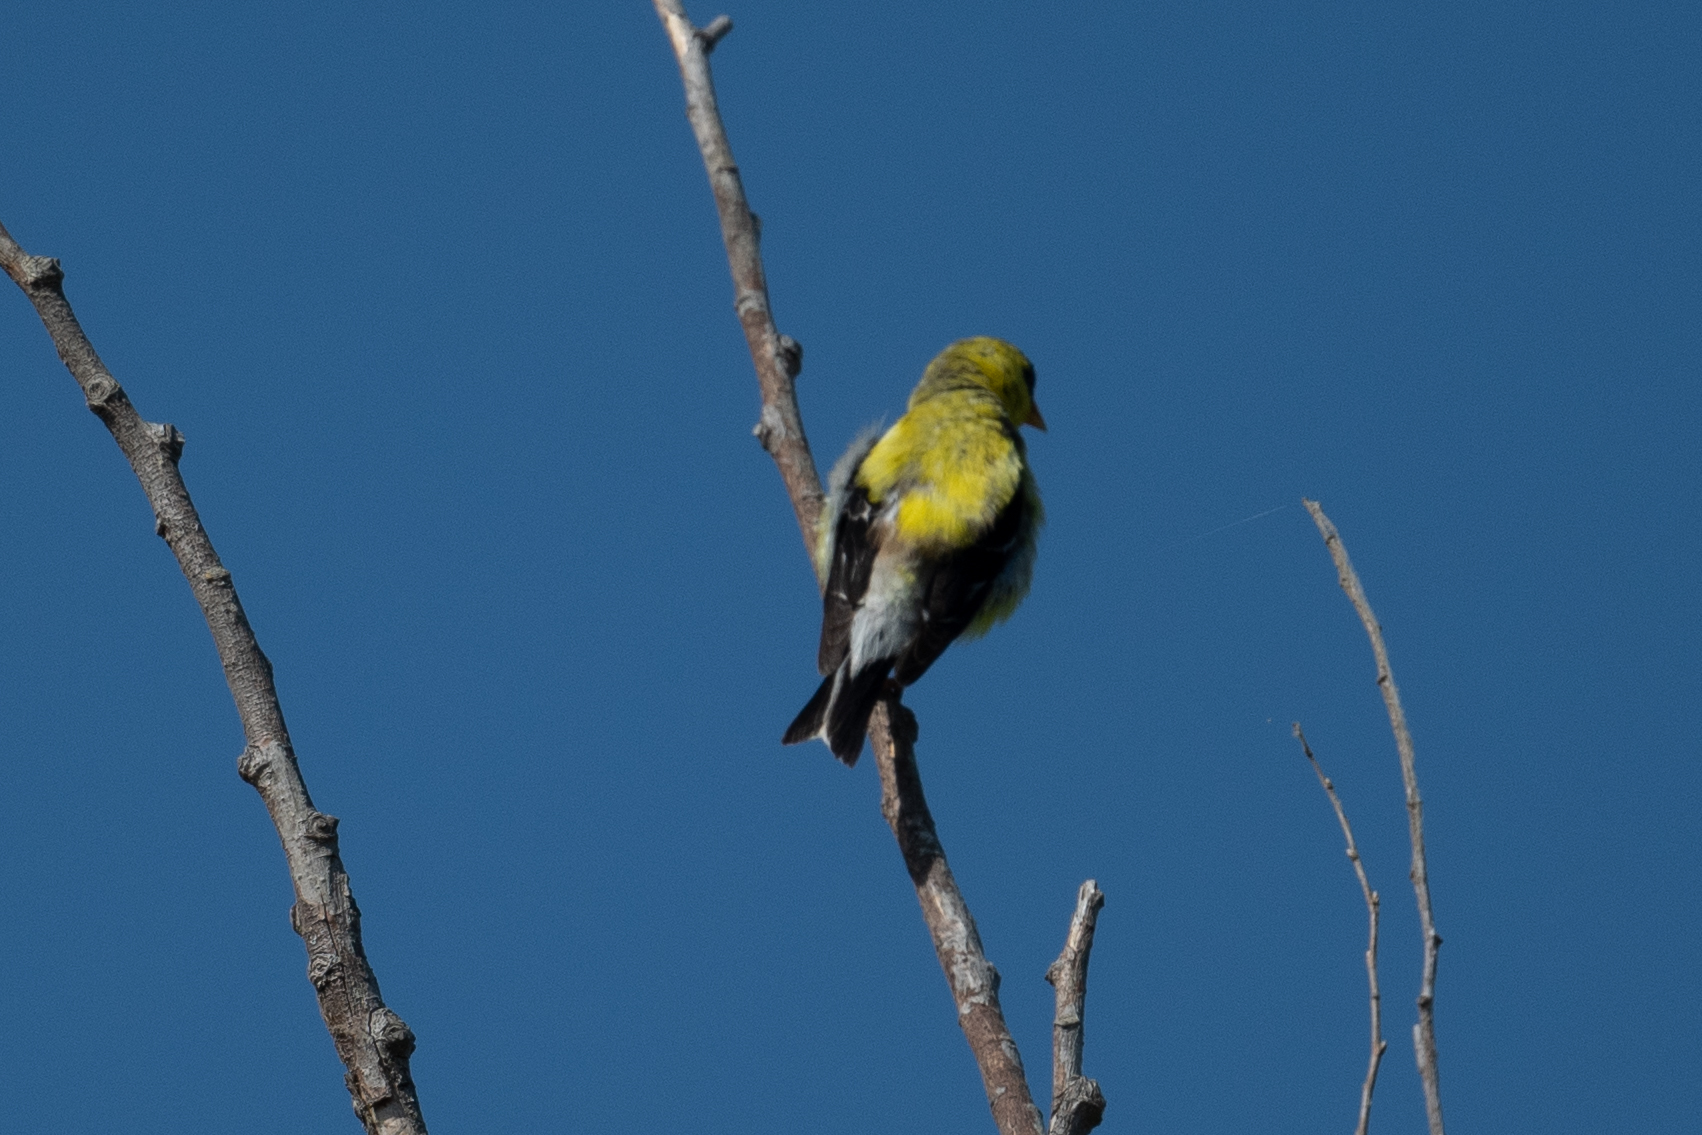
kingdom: Animalia
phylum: Chordata
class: Aves
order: Passeriformes
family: Fringillidae
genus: Spinus
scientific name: Spinus tristis
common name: American goldfinch
